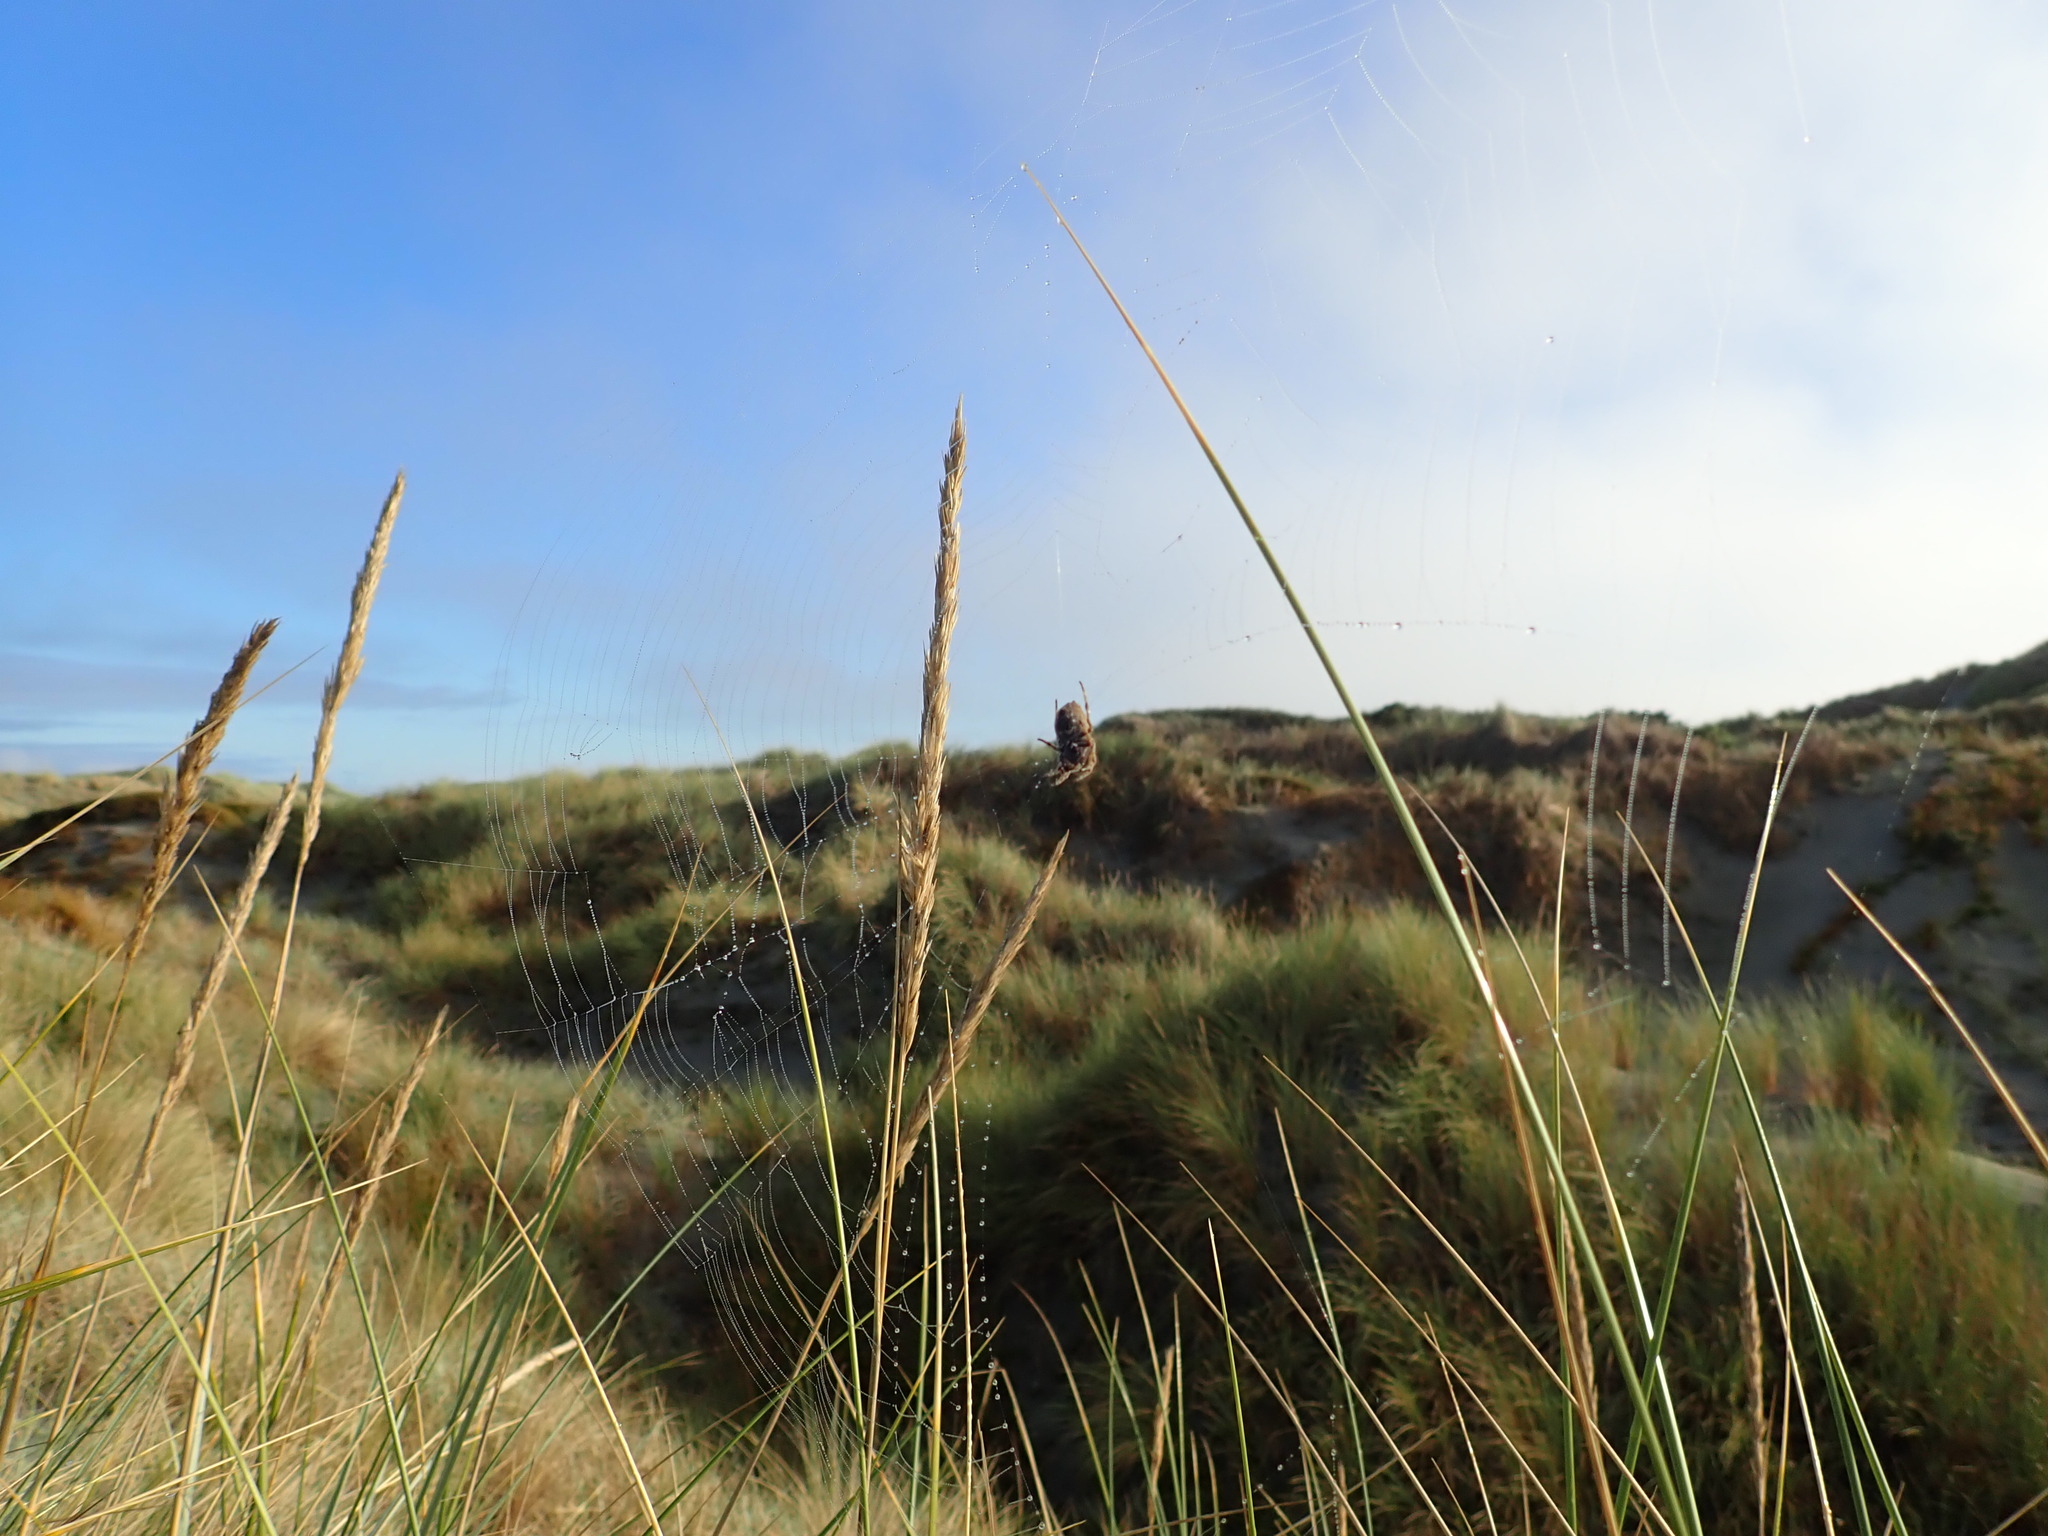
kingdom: Animalia
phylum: Arthropoda
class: Arachnida
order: Araneae
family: Araneidae
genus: Eriophora
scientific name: Eriophora pustulosa
